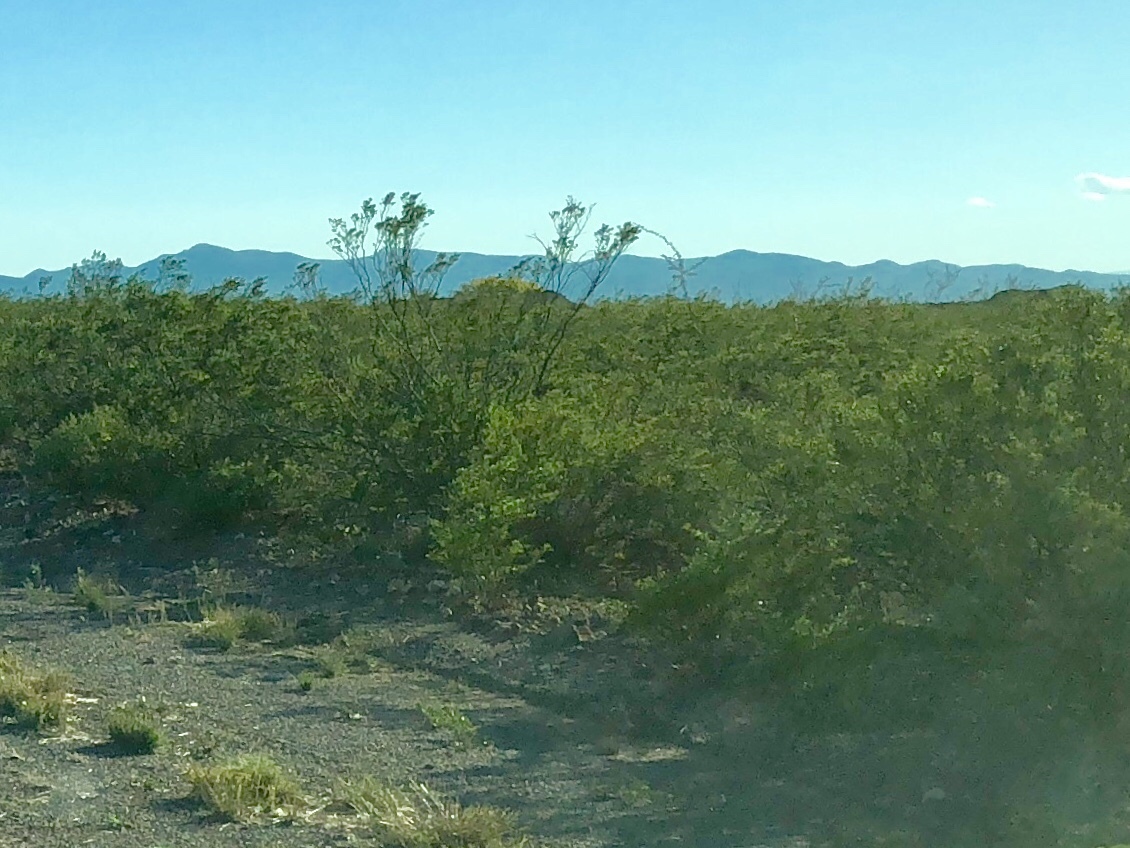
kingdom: Plantae
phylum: Tracheophyta
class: Magnoliopsida
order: Zygophyllales
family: Zygophyllaceae
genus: Larrea
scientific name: Larrea tridentata
